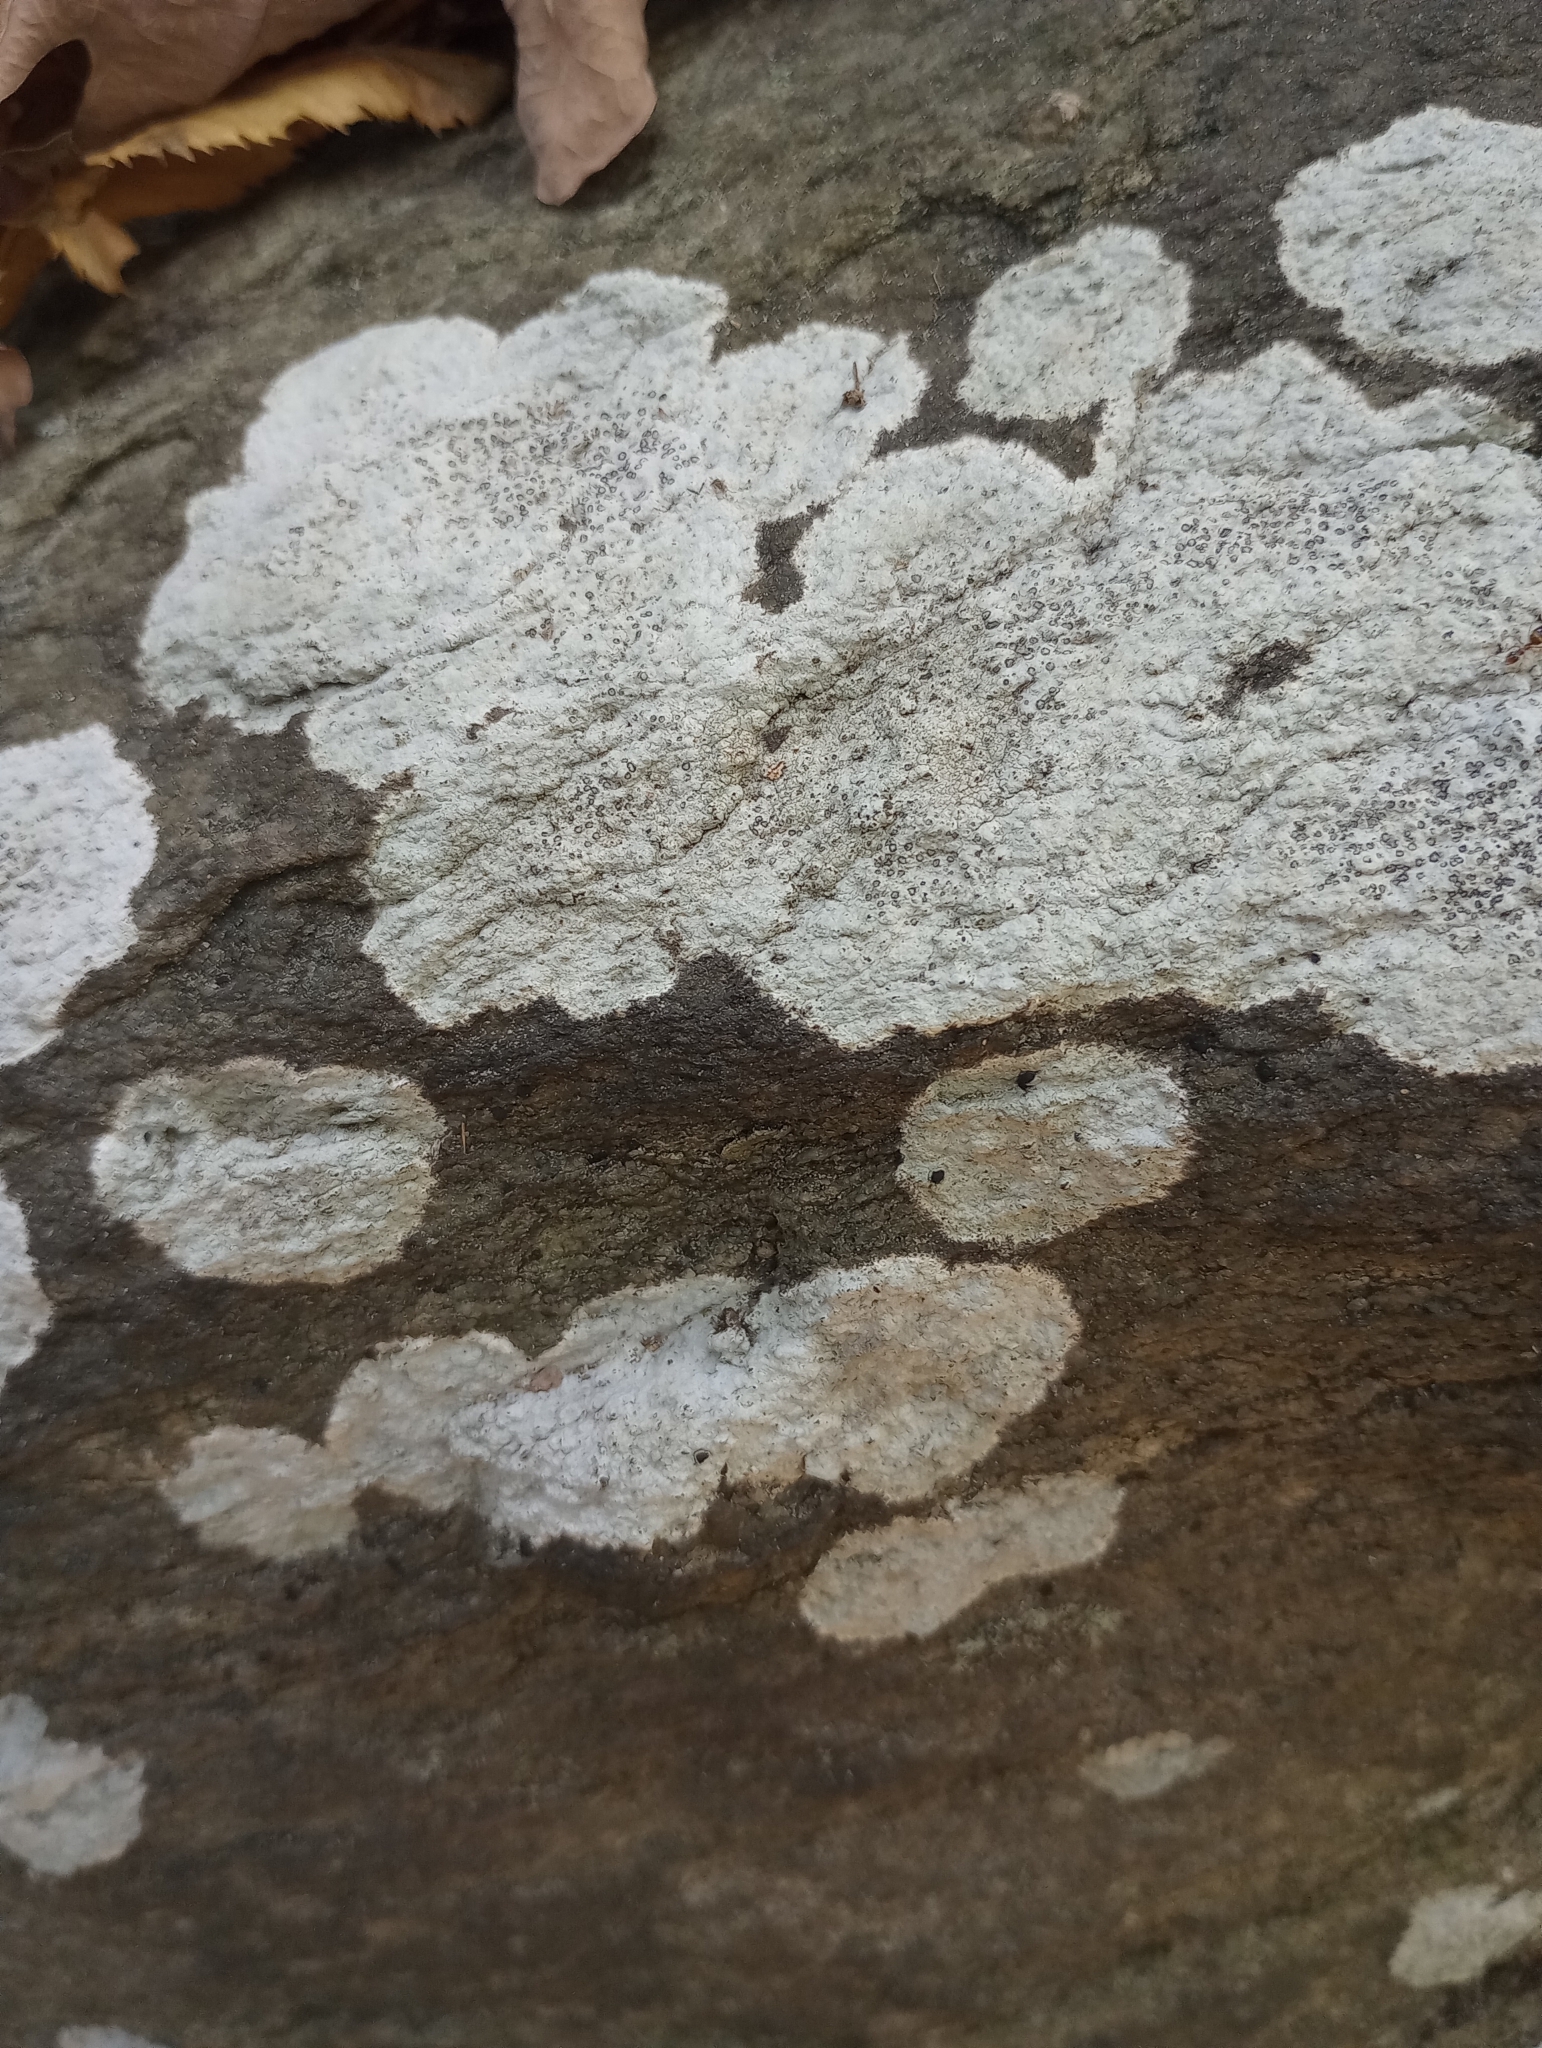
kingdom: Fungi
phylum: Ascomycota
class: Lecanoromycetes
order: Lecideales
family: Lecideaceae
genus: Porpidia
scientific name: Porpidia albocaerulescens
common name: Smokey-eyed boulder lichen
